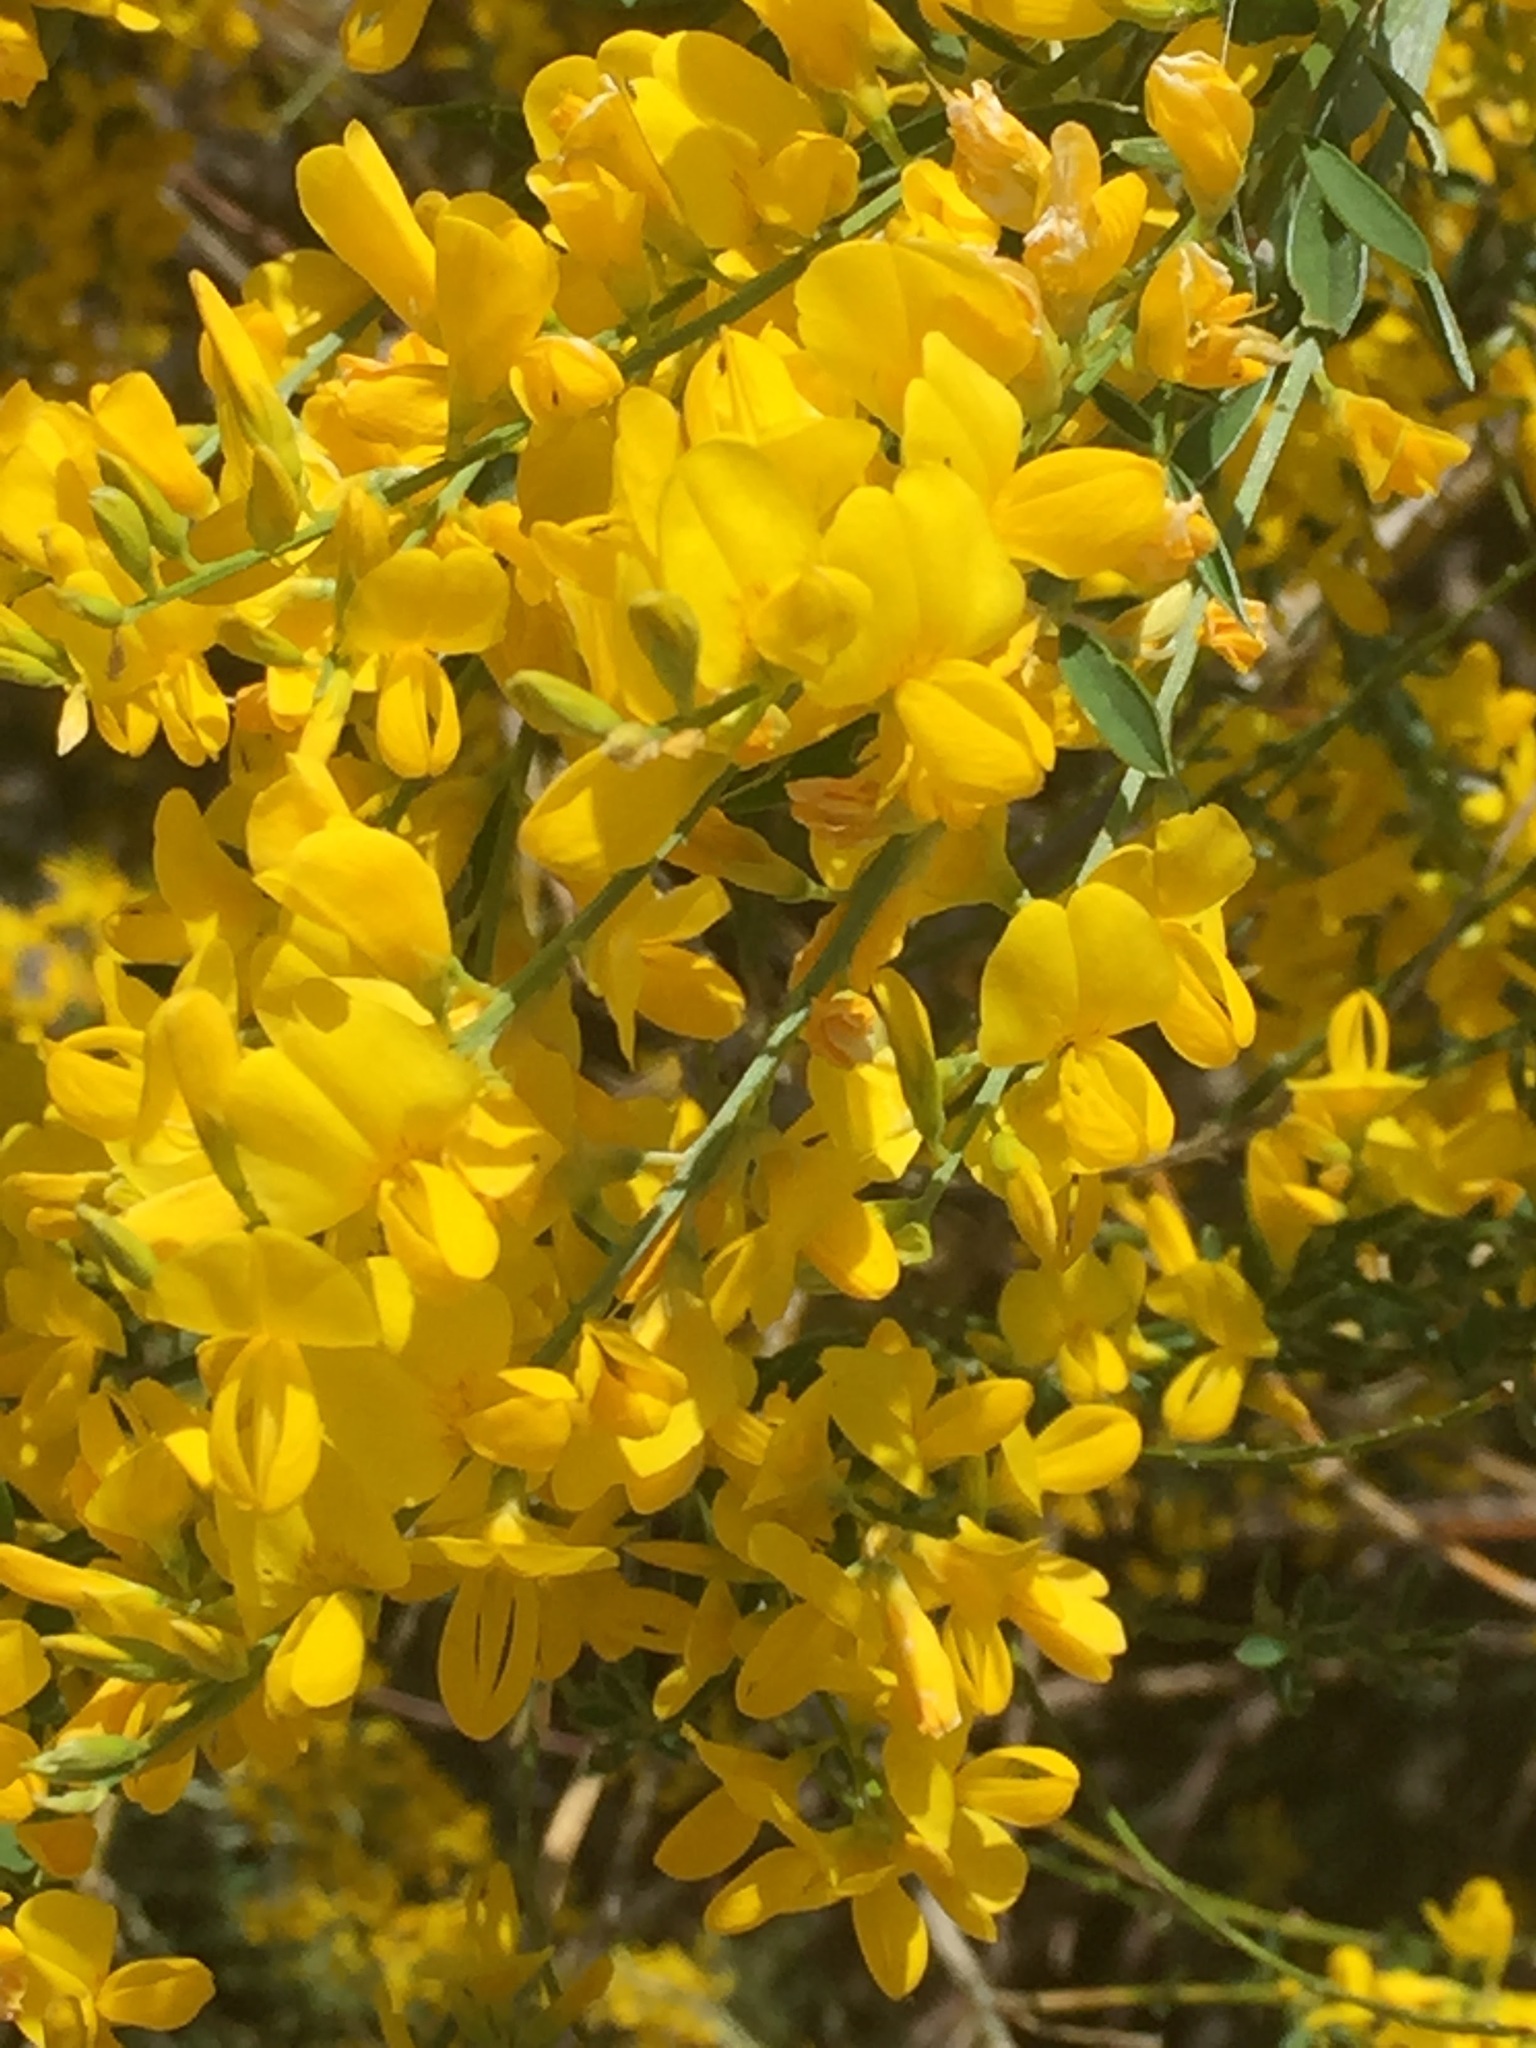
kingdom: Plantae
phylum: Tracheophyta
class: Magnoliopsida
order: Fabales
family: Fabaceae
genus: Genista
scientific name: Genista florida
